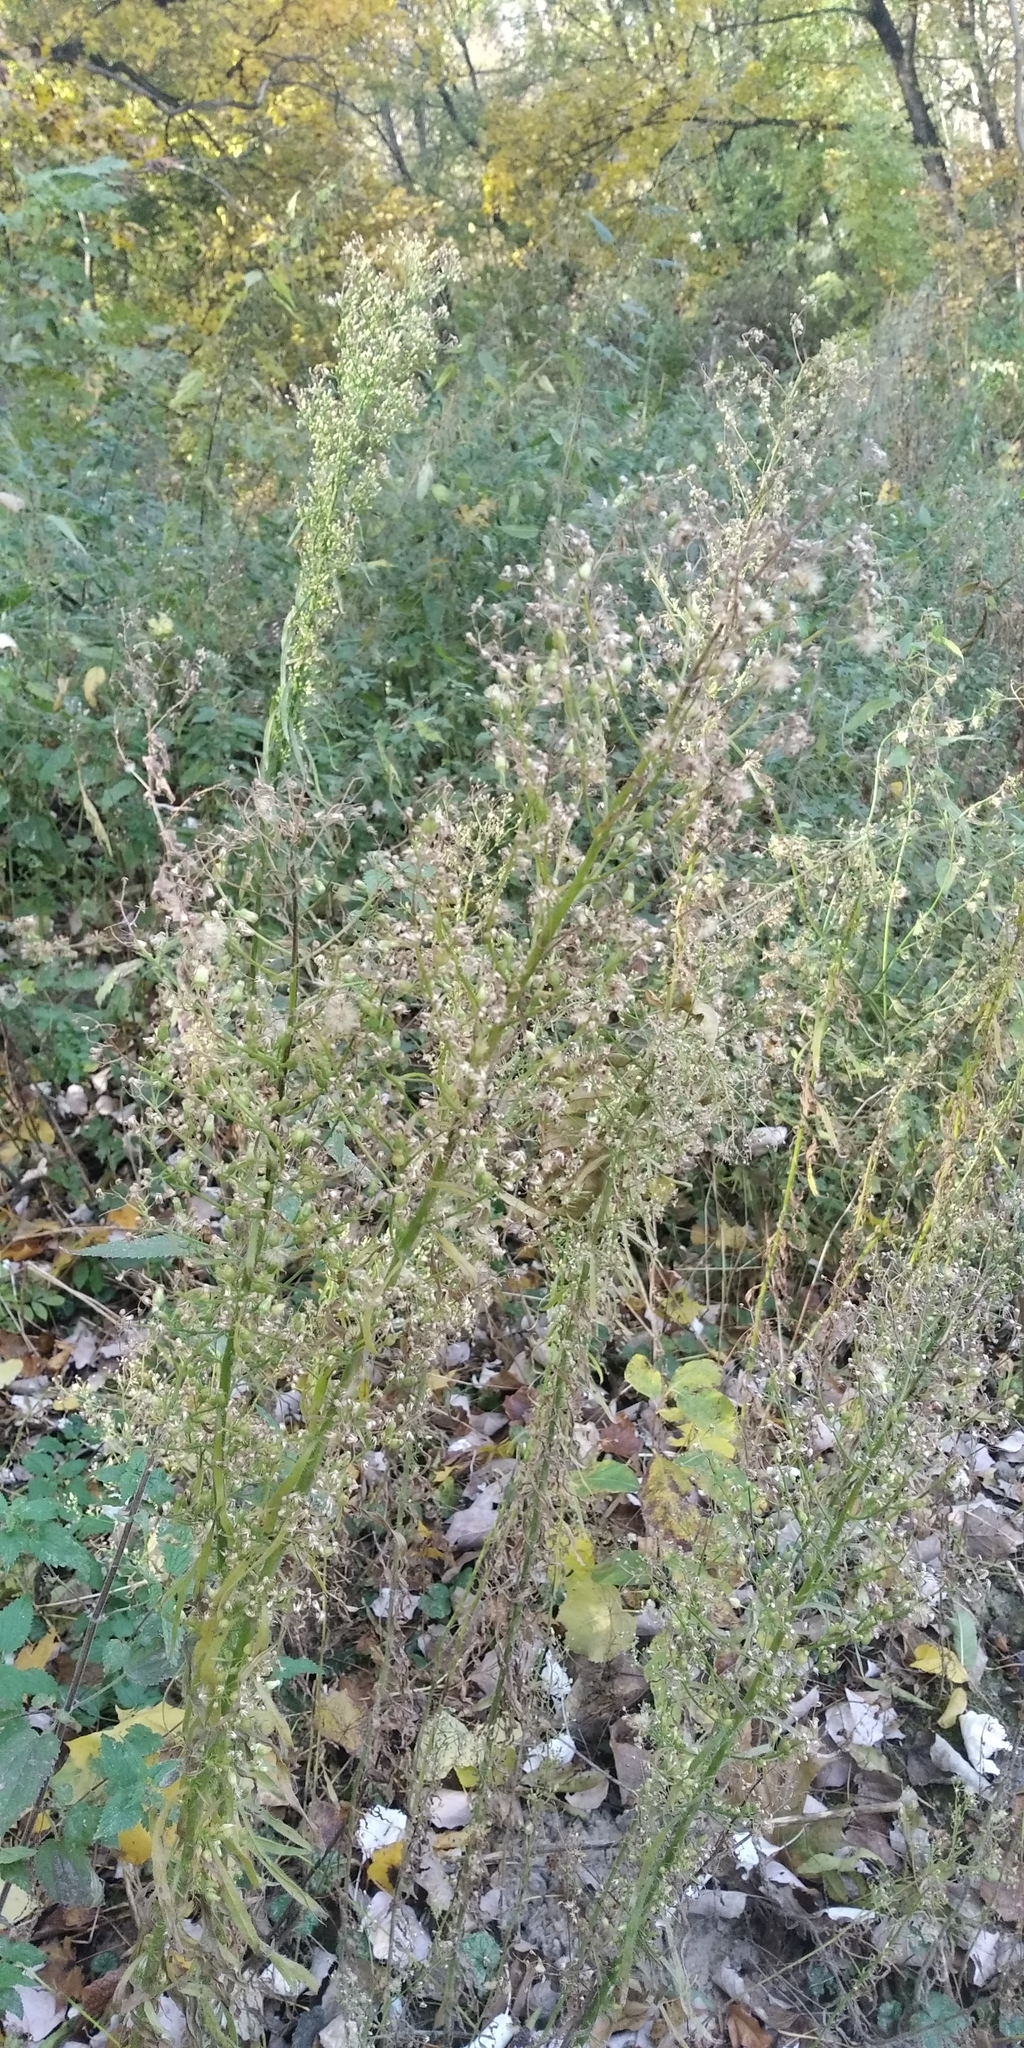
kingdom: Plantae
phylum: Tracheophyta
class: Magnoliopsida
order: Asterales
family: Asteraceae
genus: Erigeron
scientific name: Erigeron canadensis
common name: Canadian fleabane
